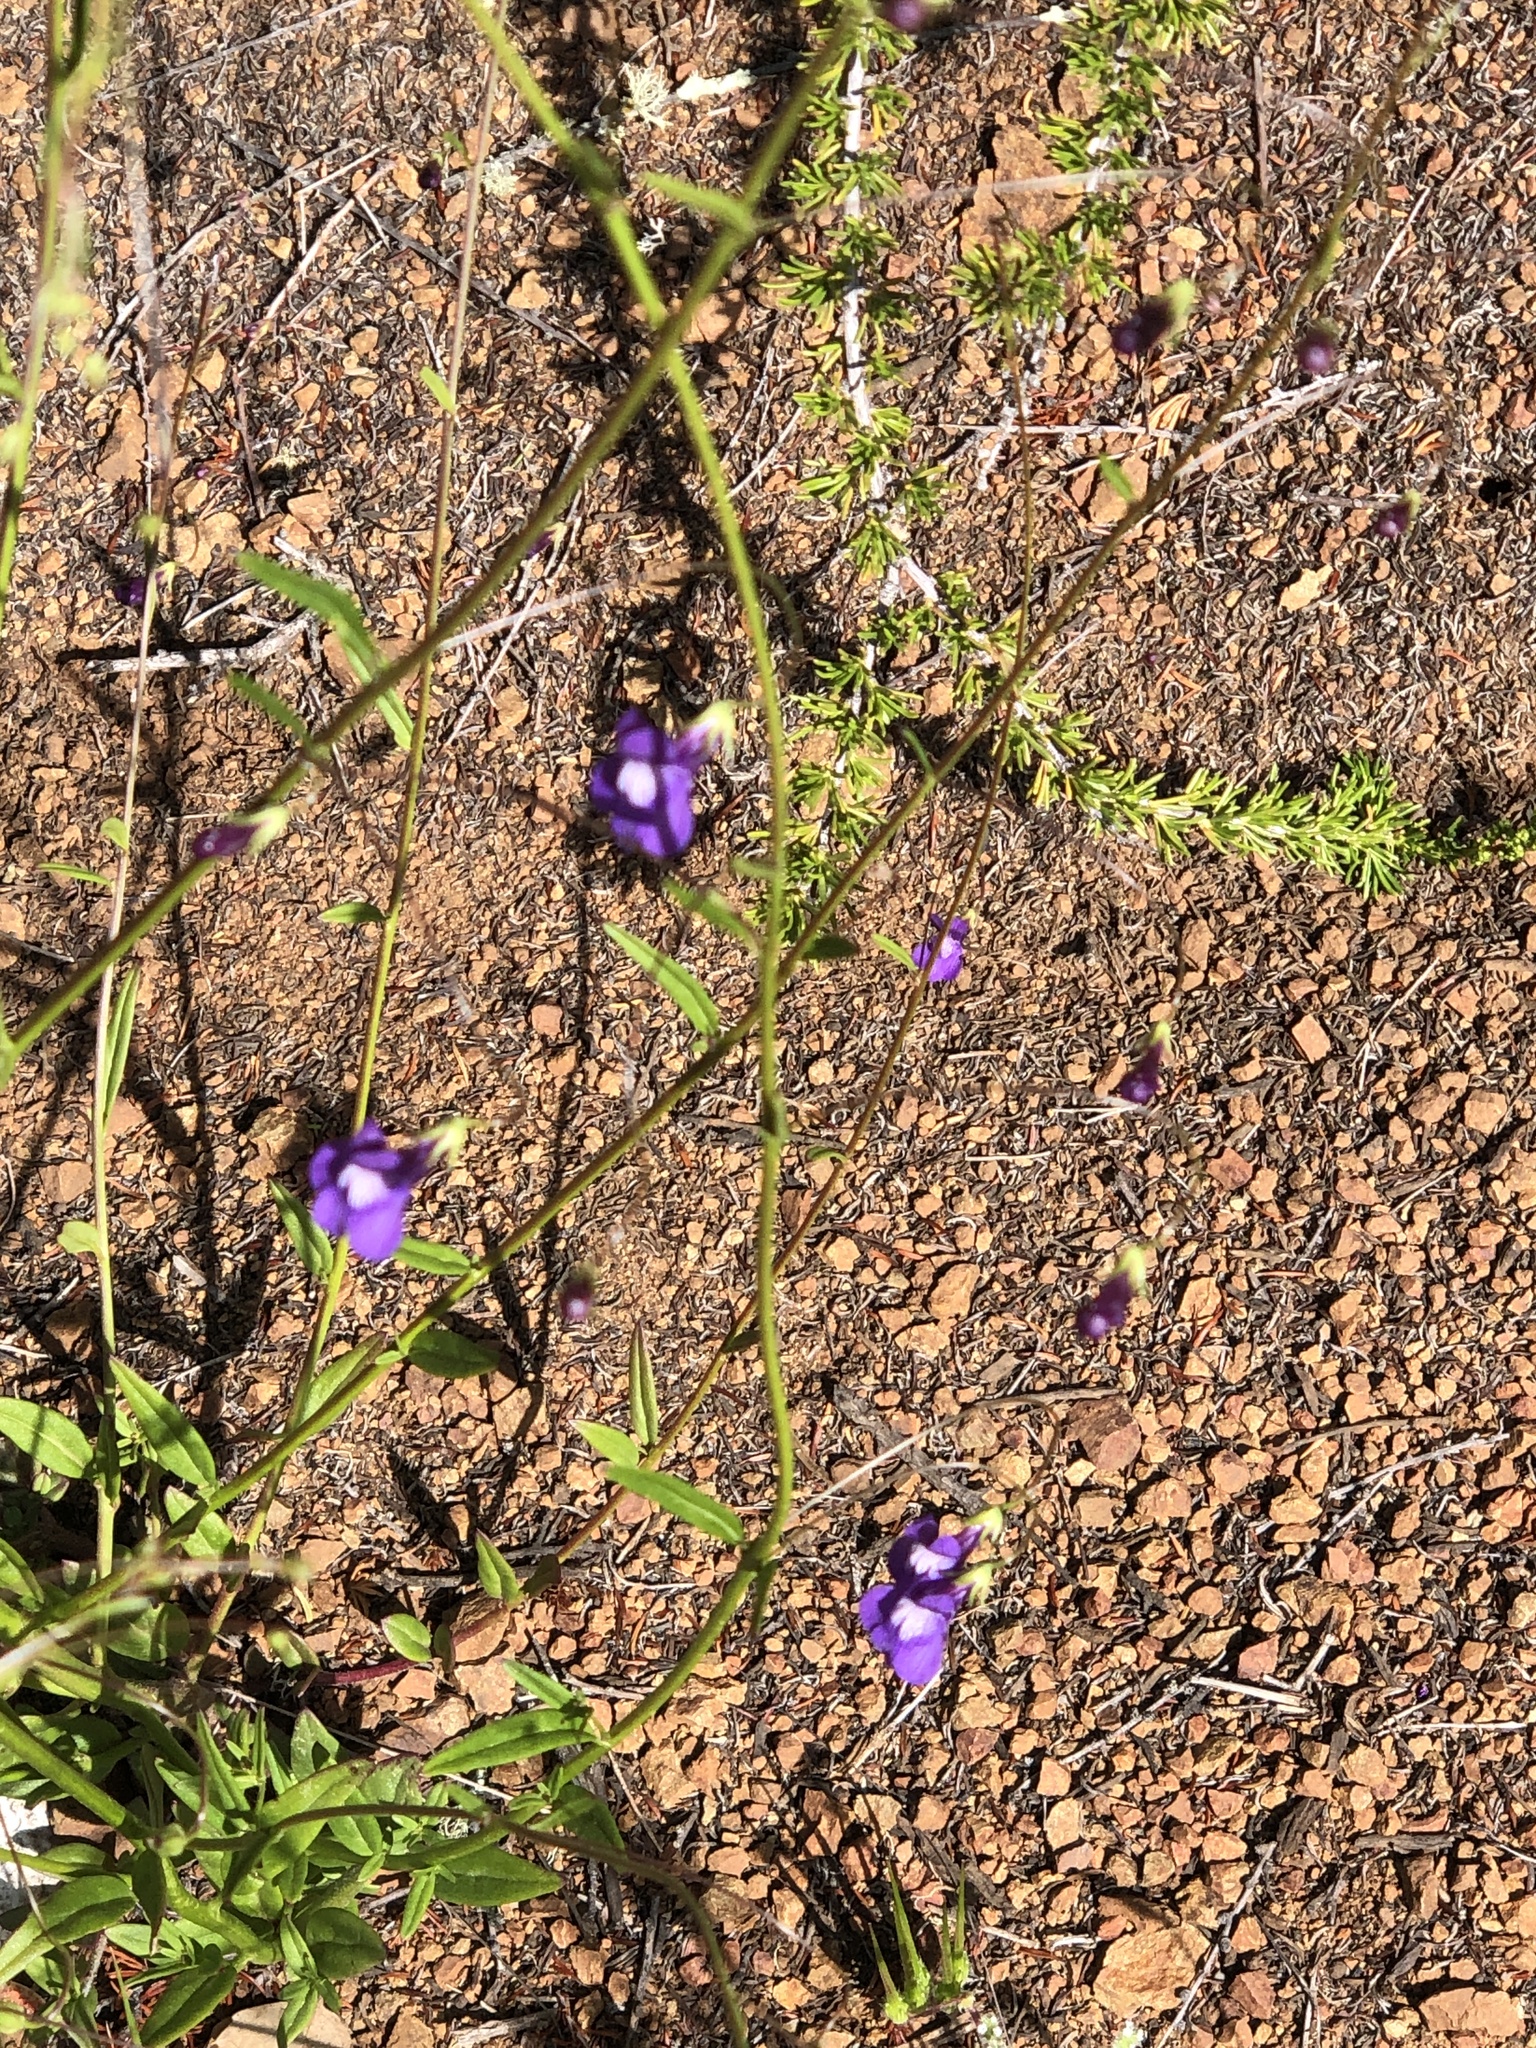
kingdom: Plantae
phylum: Tracheophyta
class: Magnoliopsida
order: Lamiales
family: Plantaginaceae
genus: Neogaerrhinum
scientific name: Neogaerrhinum strictum
